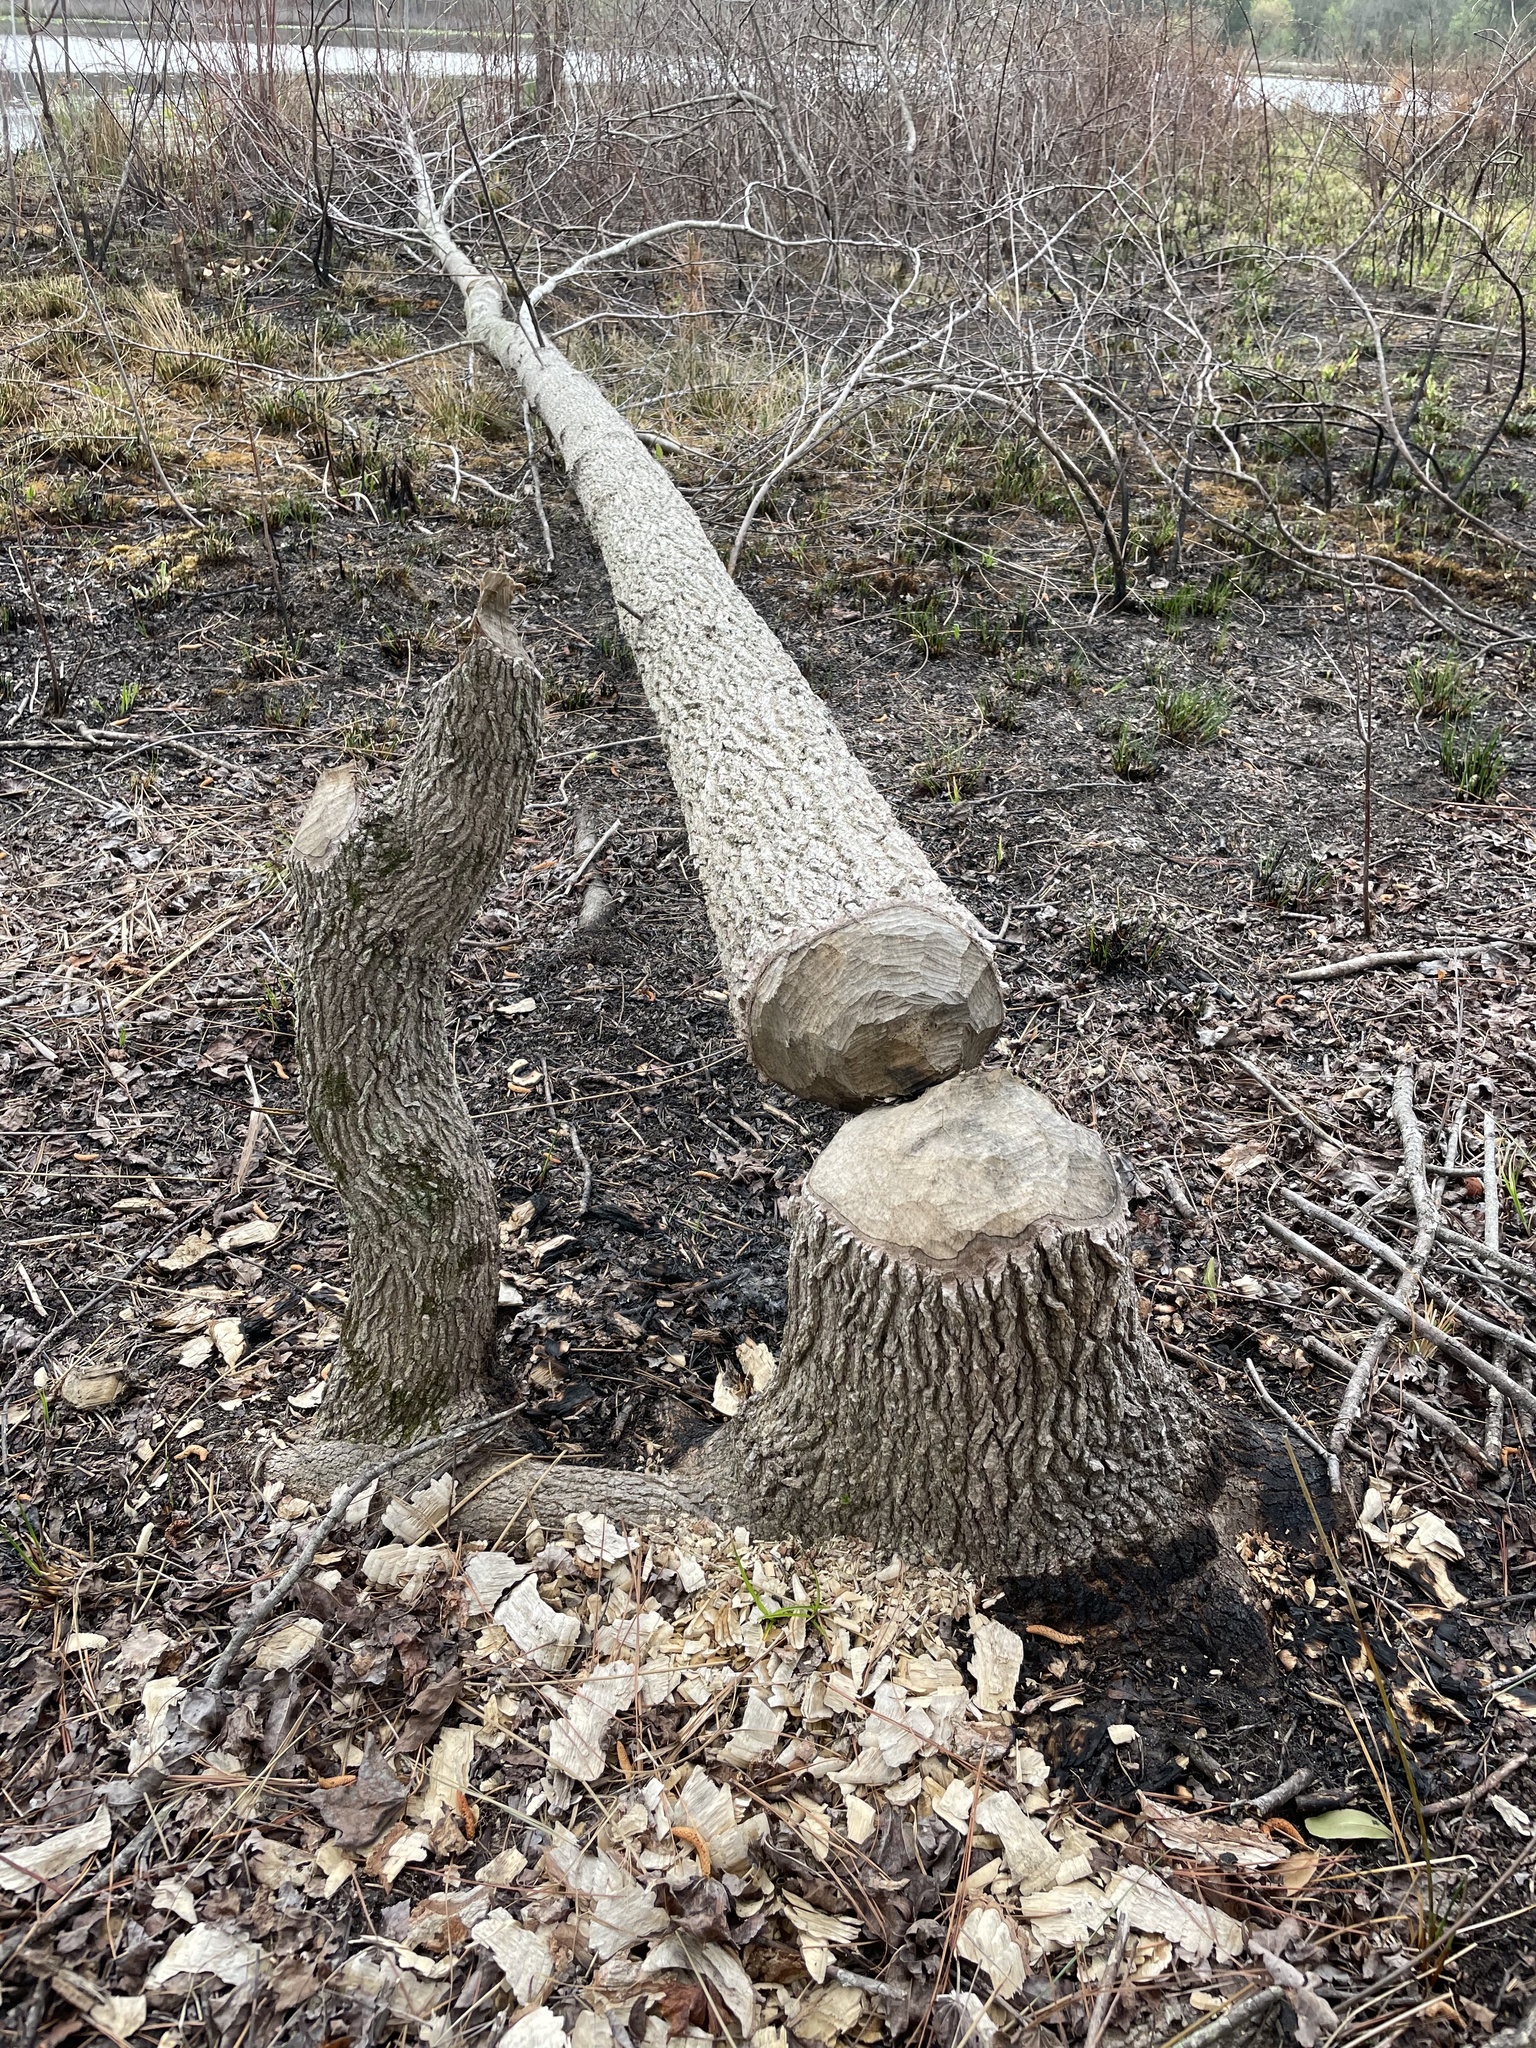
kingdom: Animalia
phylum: Chordata
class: Mammalia
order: Rodentia
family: Castoridae
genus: Castor
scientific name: Castor canadensis
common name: American beaver
